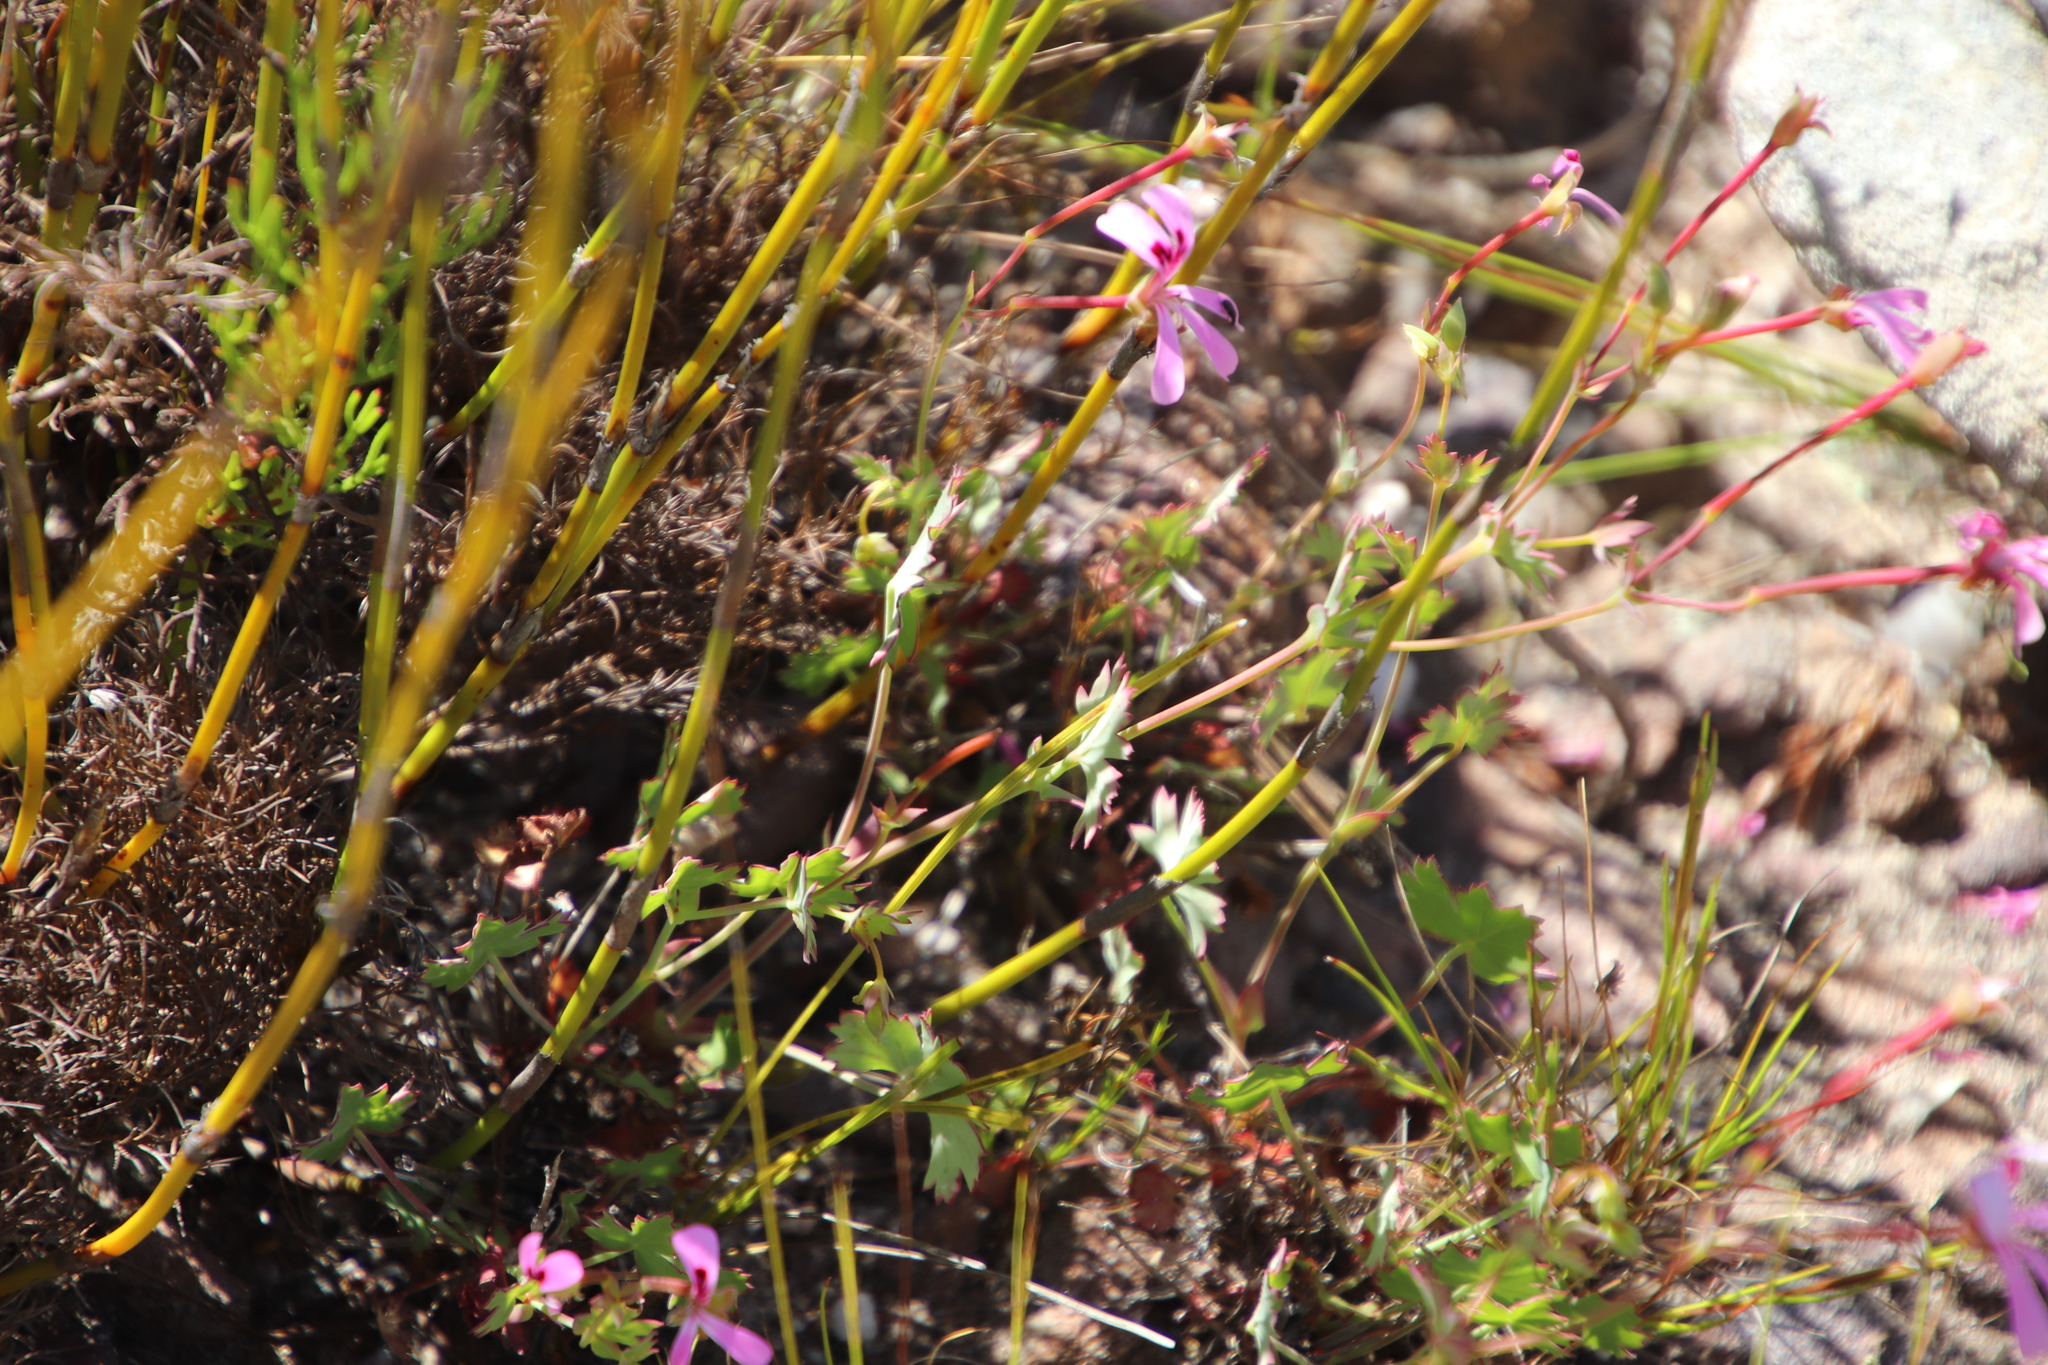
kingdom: Plantae
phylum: Tracheophyta
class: Magnoliopsida
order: Geraniales
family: Geraniaceae
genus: Pelargonium
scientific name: Pelargonium patulum
